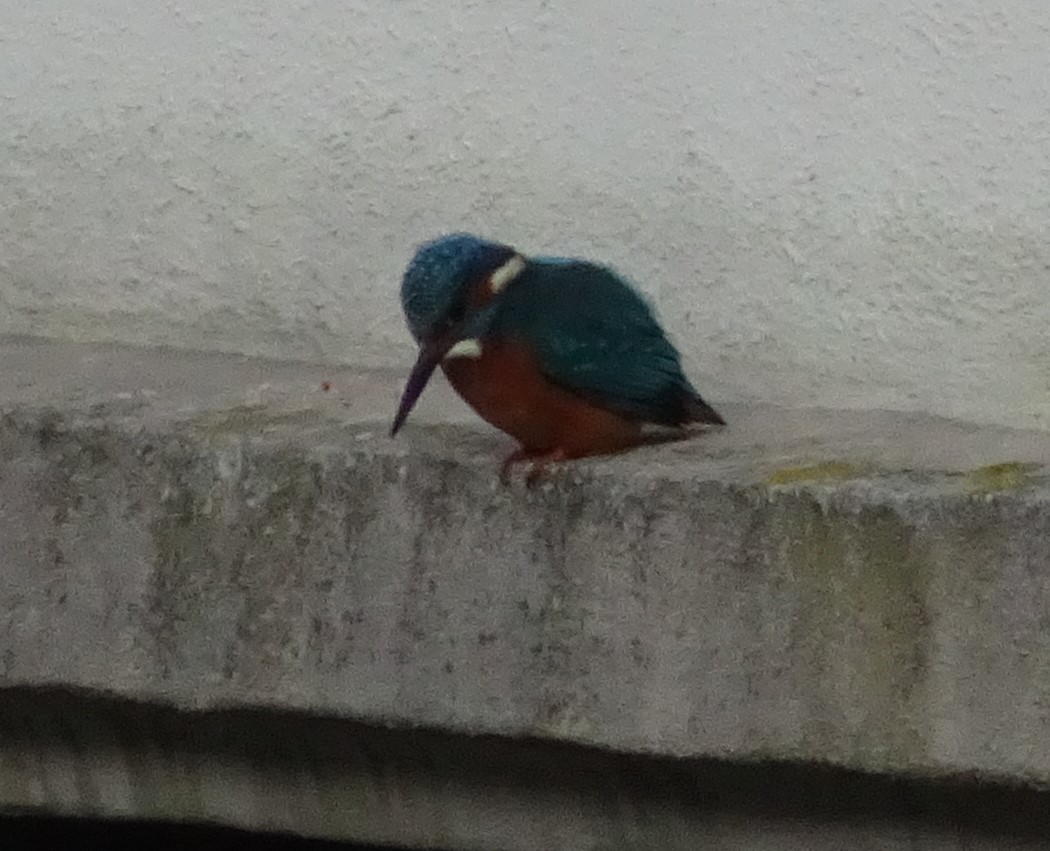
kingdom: Animalia
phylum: Chordata
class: Aves
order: Coraciiformes
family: Alcedinidae
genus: Alcedo
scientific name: Alcedo atthis
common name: Common kingfisher
